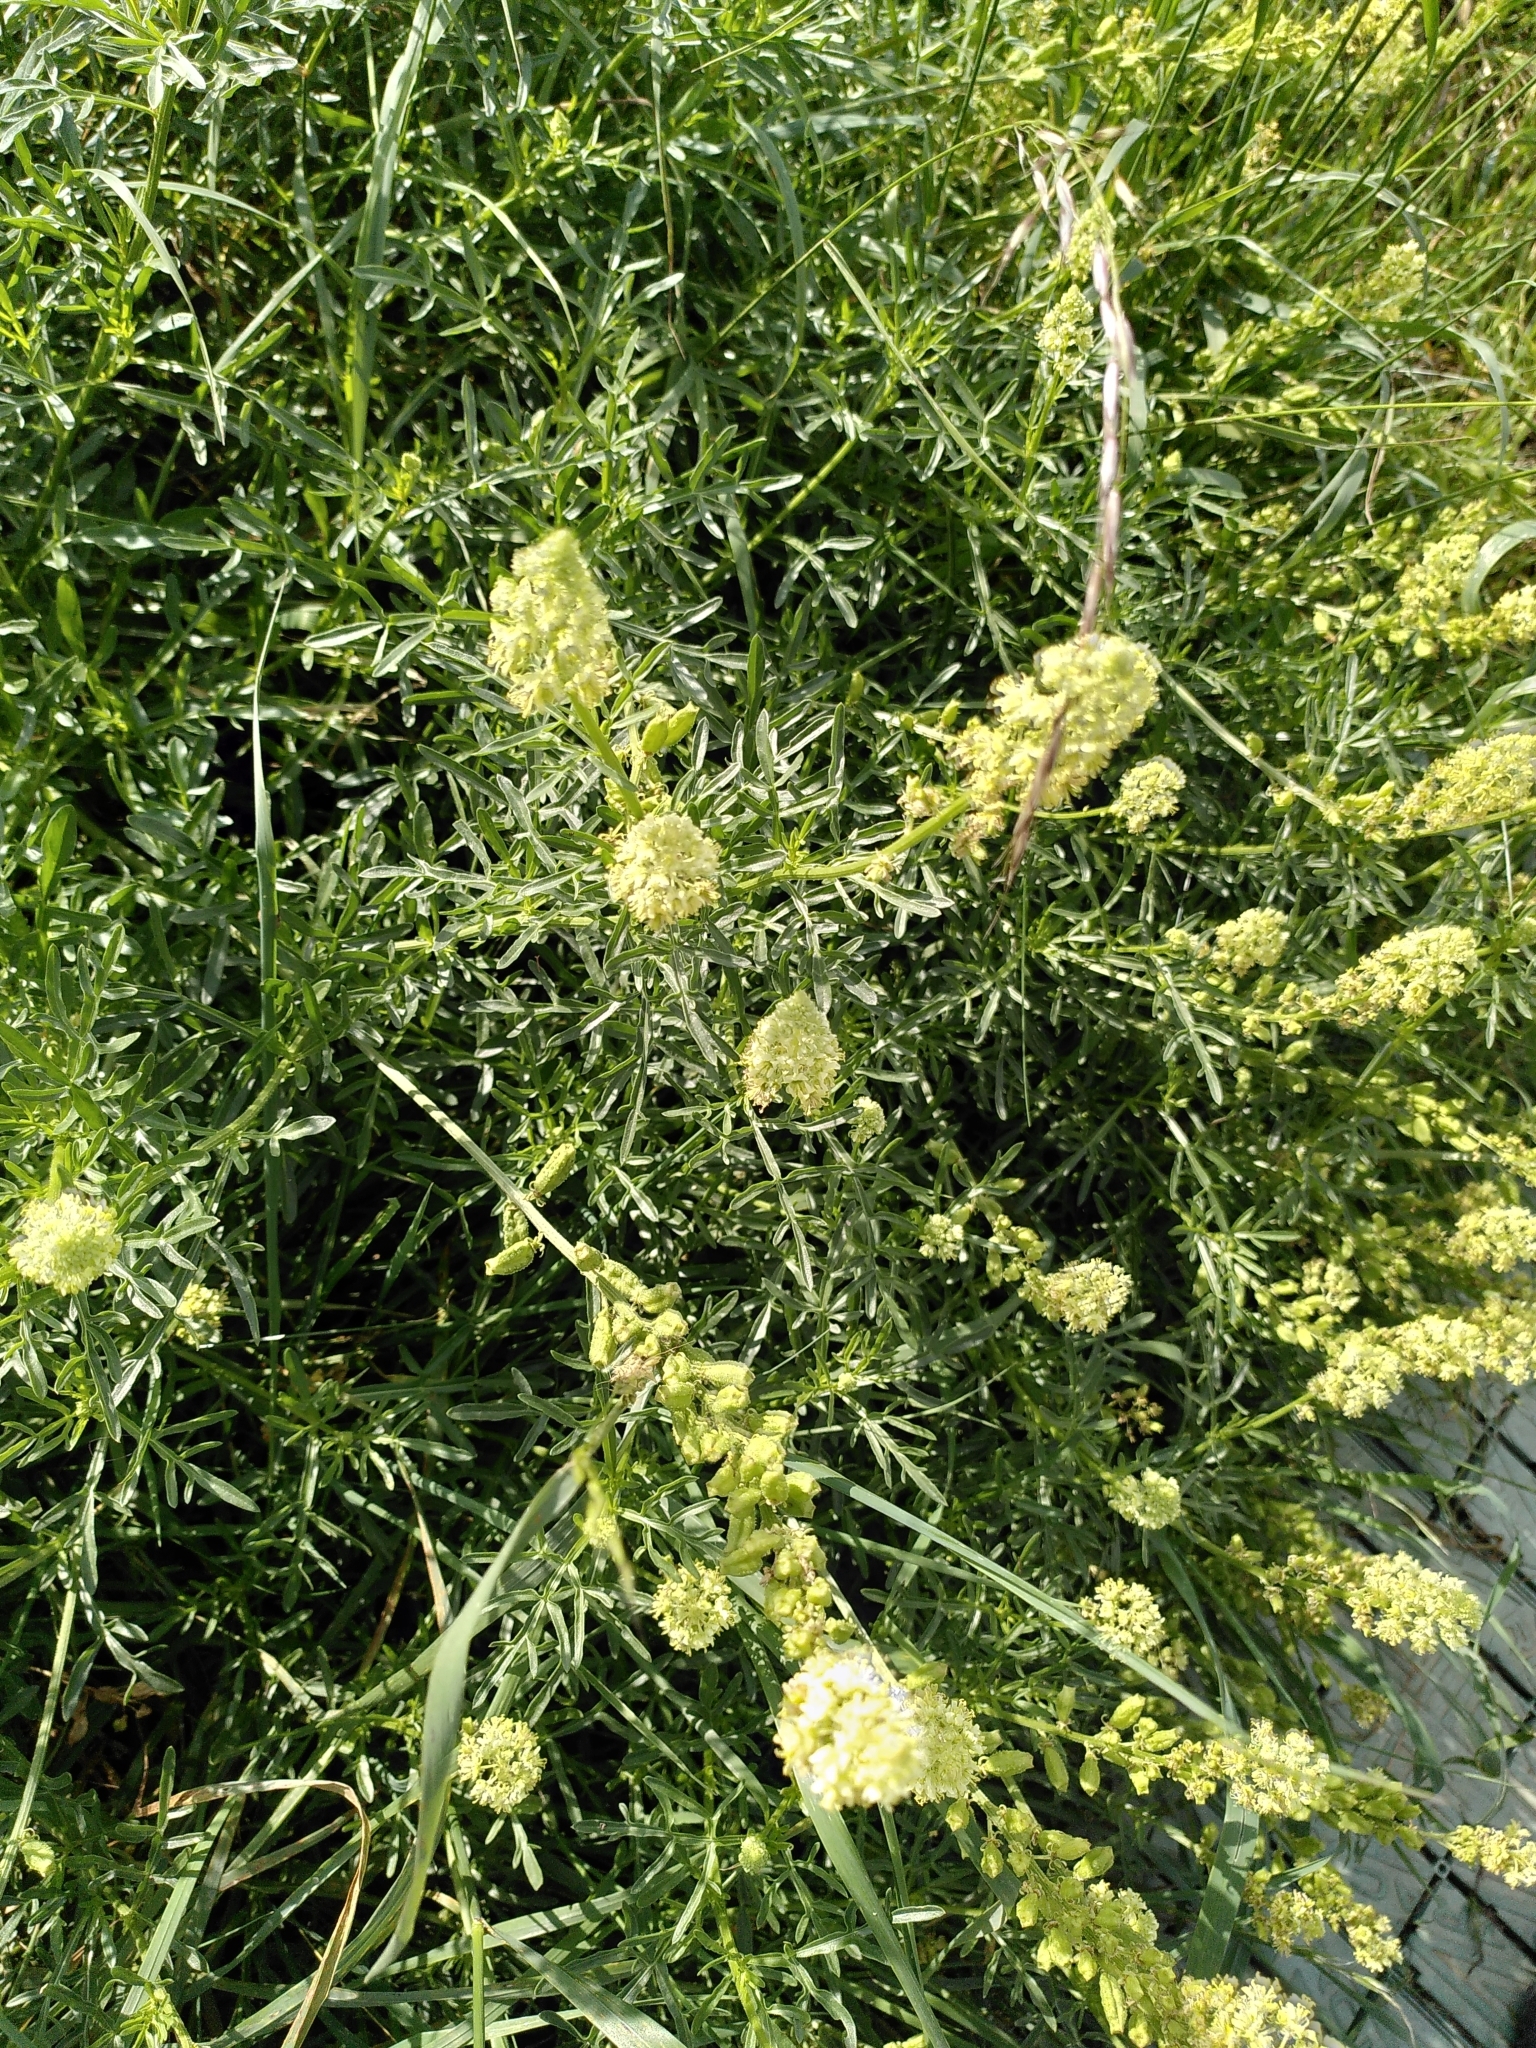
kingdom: Plantae
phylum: Tracheophyta
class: Magnoliopsida
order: Brassicales
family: Resedaceae
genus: Reseda
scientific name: Reseda lutea
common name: Wild mignonette
